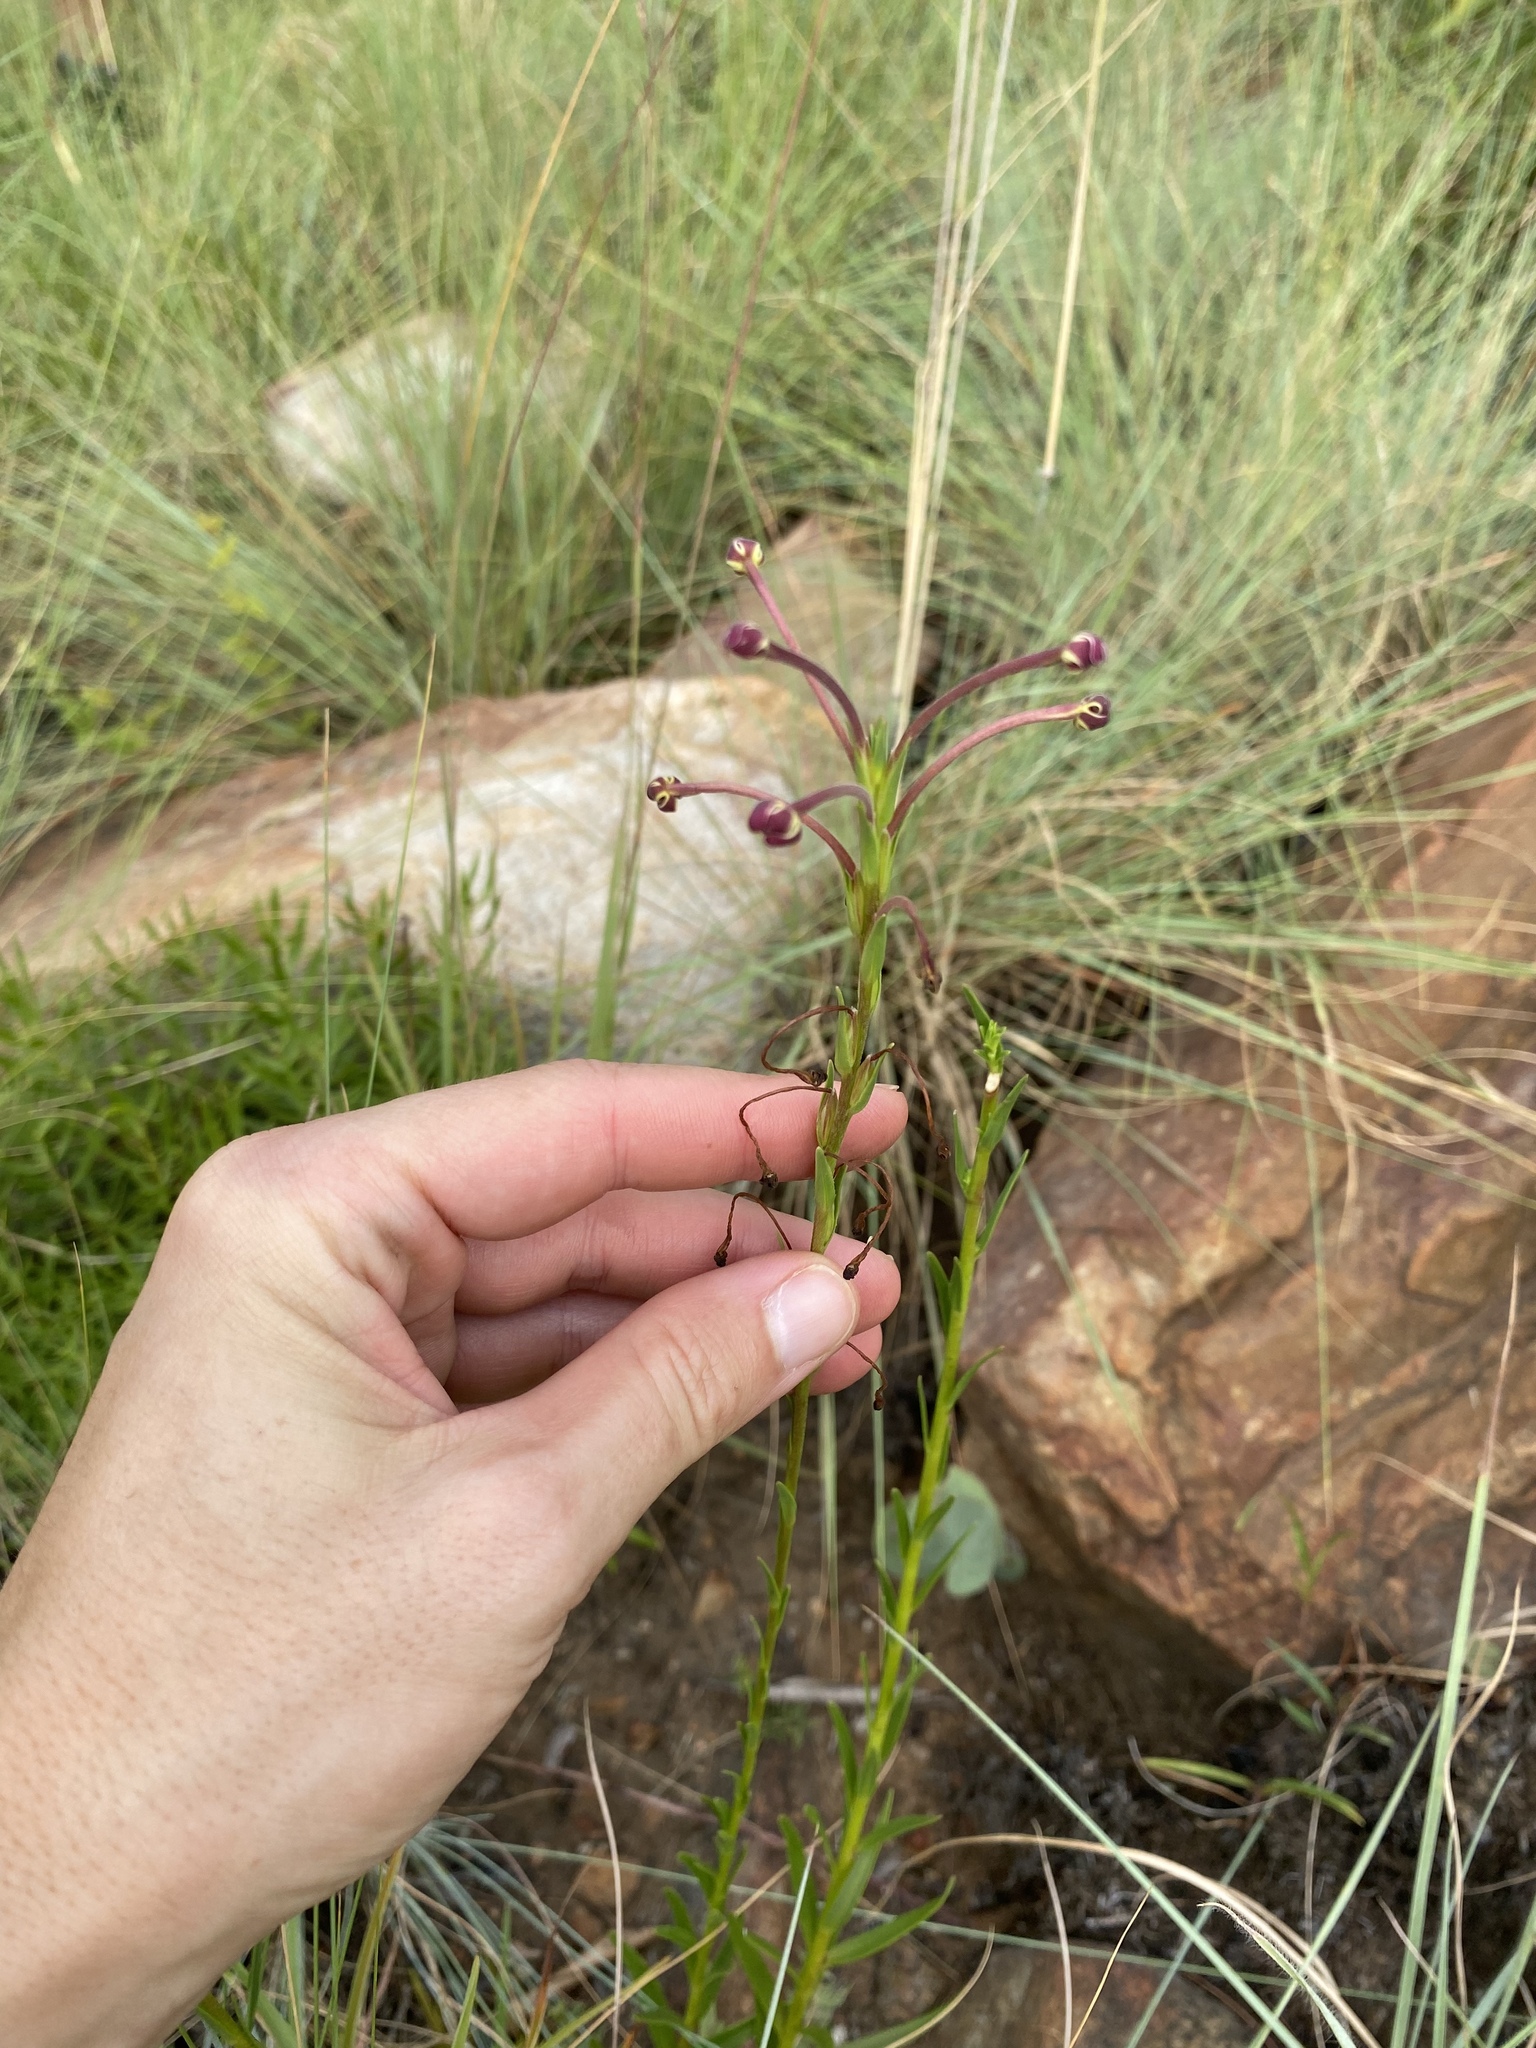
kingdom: Plantae
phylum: Tracheophyta
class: Magnoliopsida
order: Lamiales
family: Scrophulariaceae
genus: Zaluzianskya
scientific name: Zaluzianskya elongata
